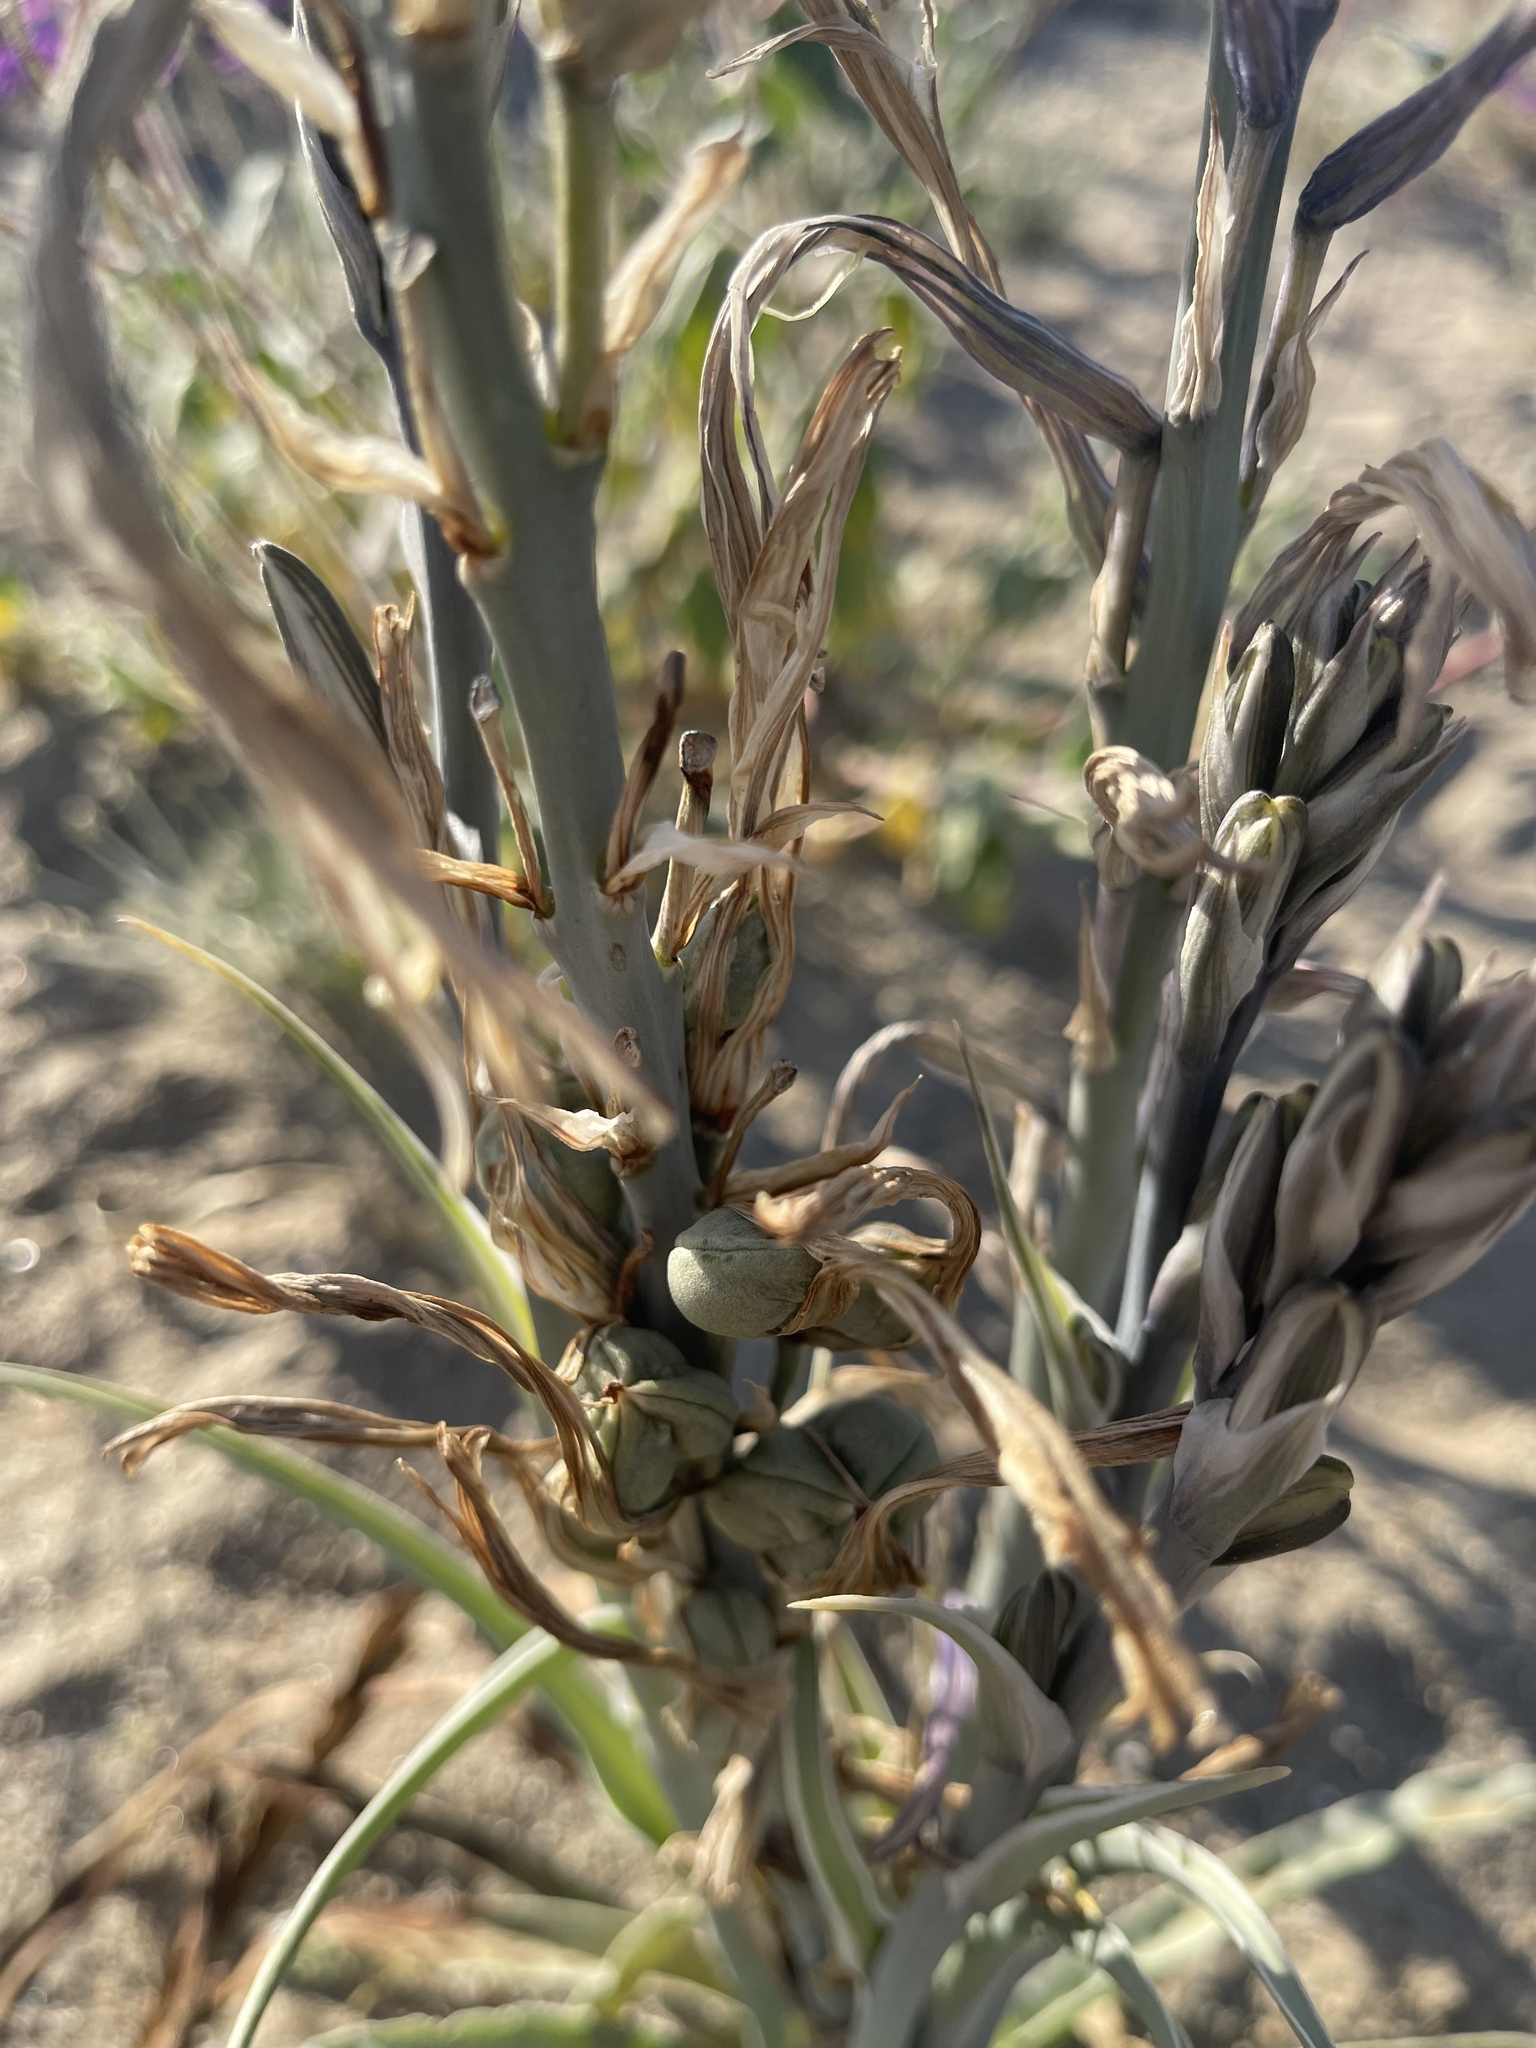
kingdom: Plantae
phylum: Tracheophyta
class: Liliopsida
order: Asparagales
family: Asparagaceae
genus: Hesperocallis
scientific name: Hesperocallis undulata
